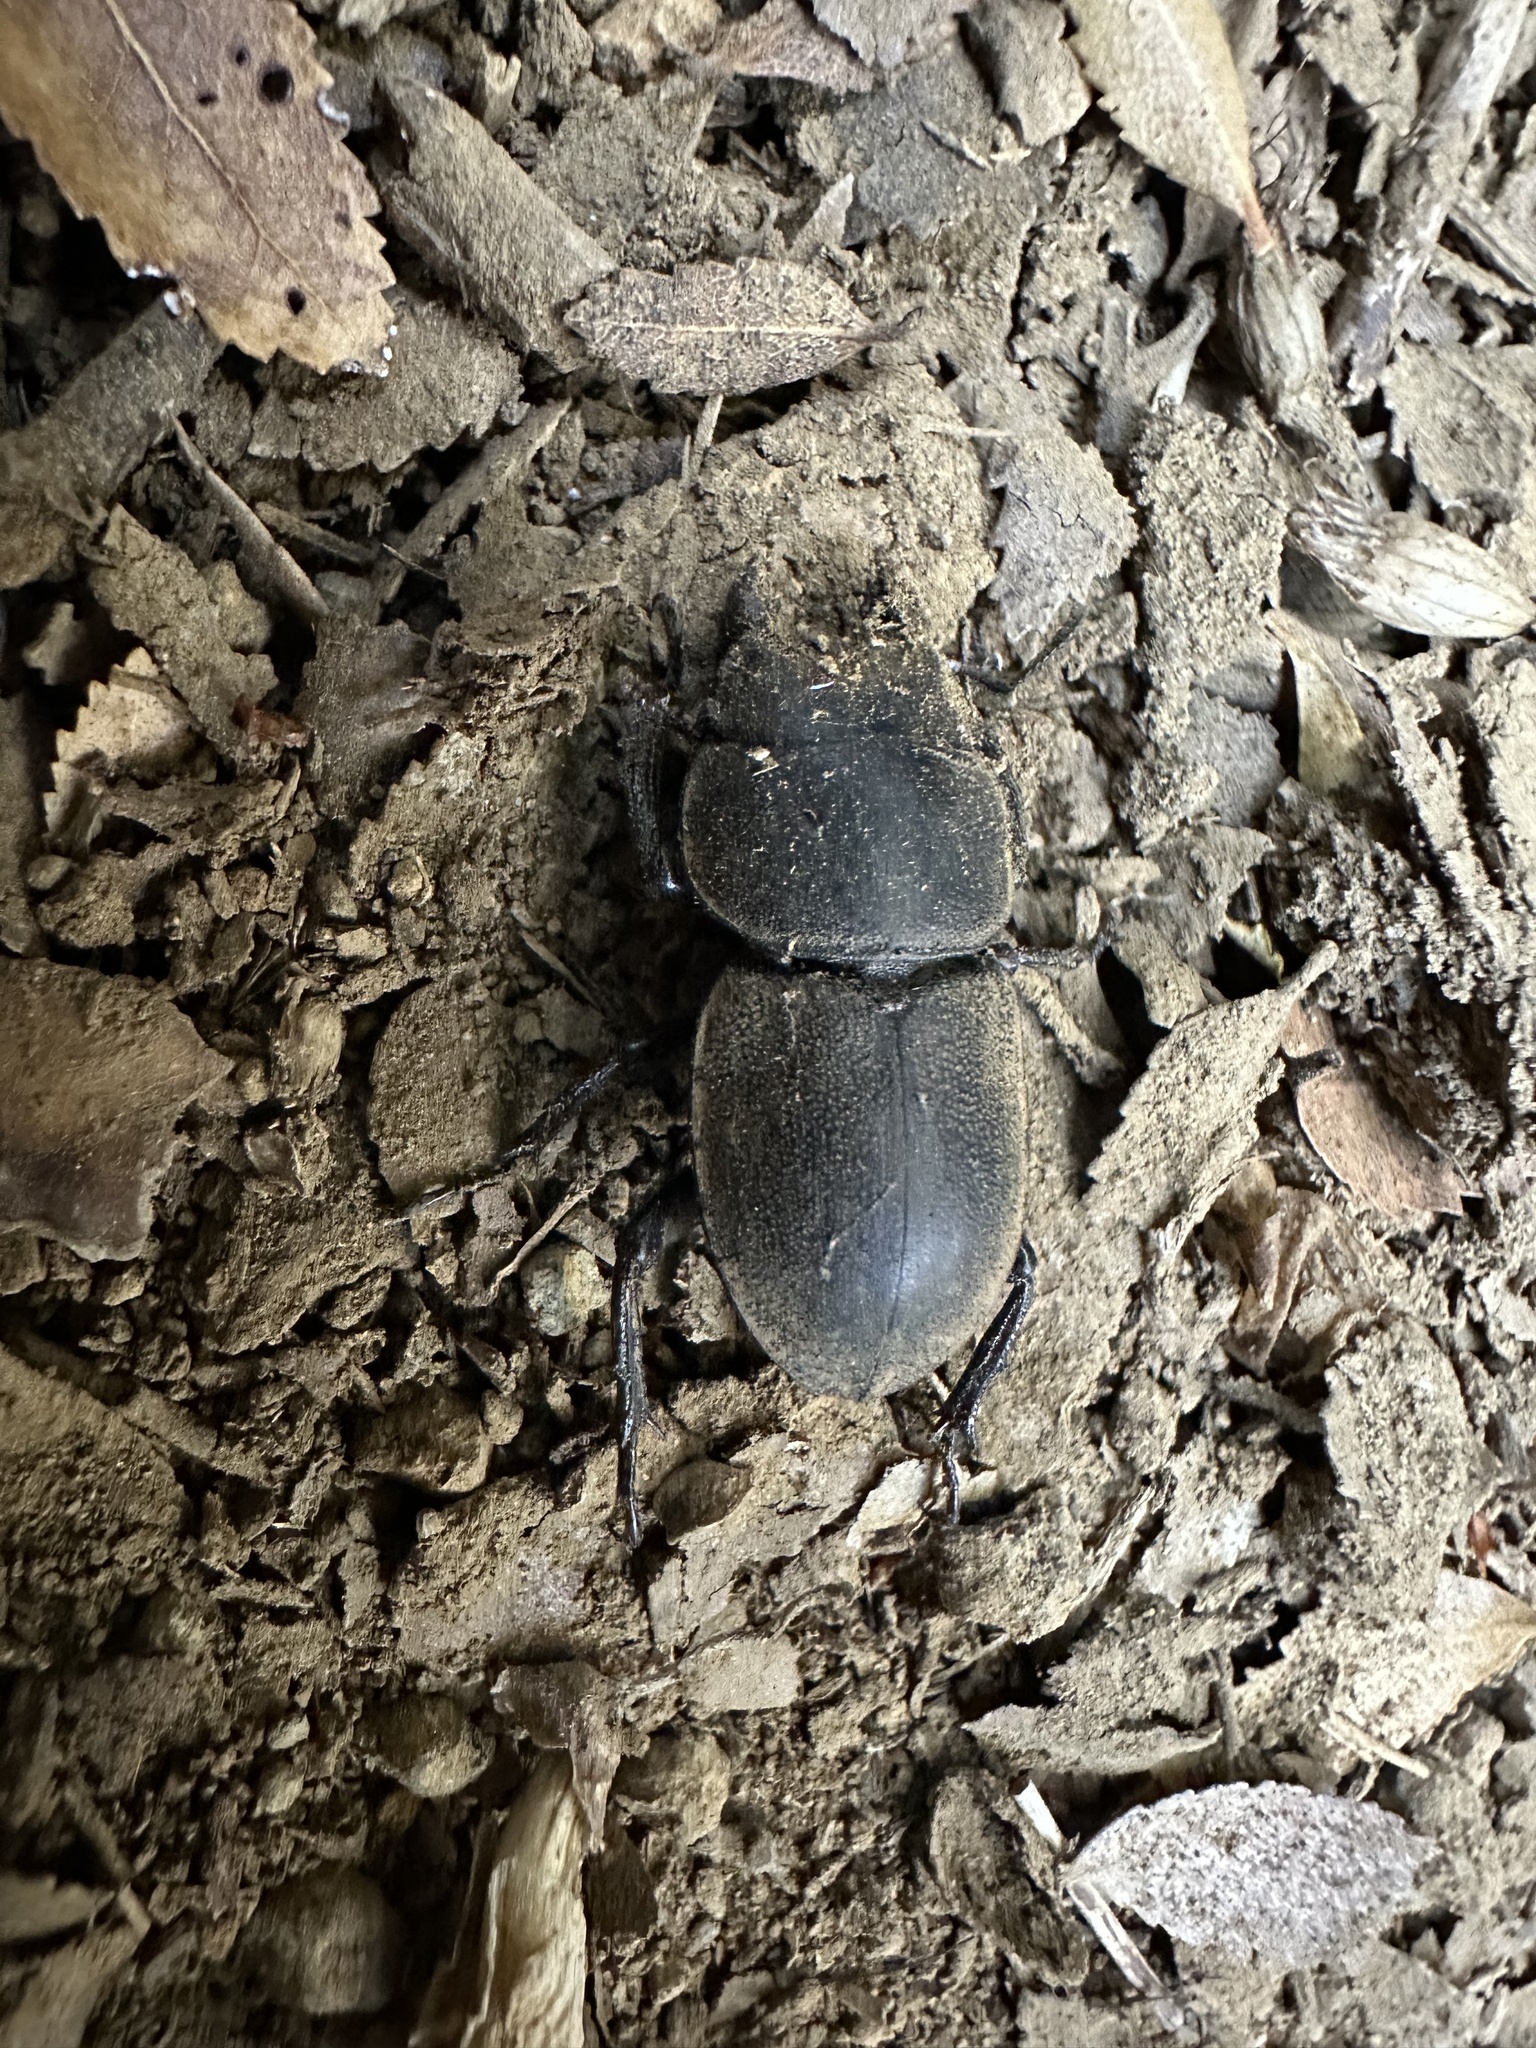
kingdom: Animalia
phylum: Arthropoda
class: Insecta
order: Coleoptera
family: Lucanidae
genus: Apterodorcus
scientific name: Apterodorcus bacchus
